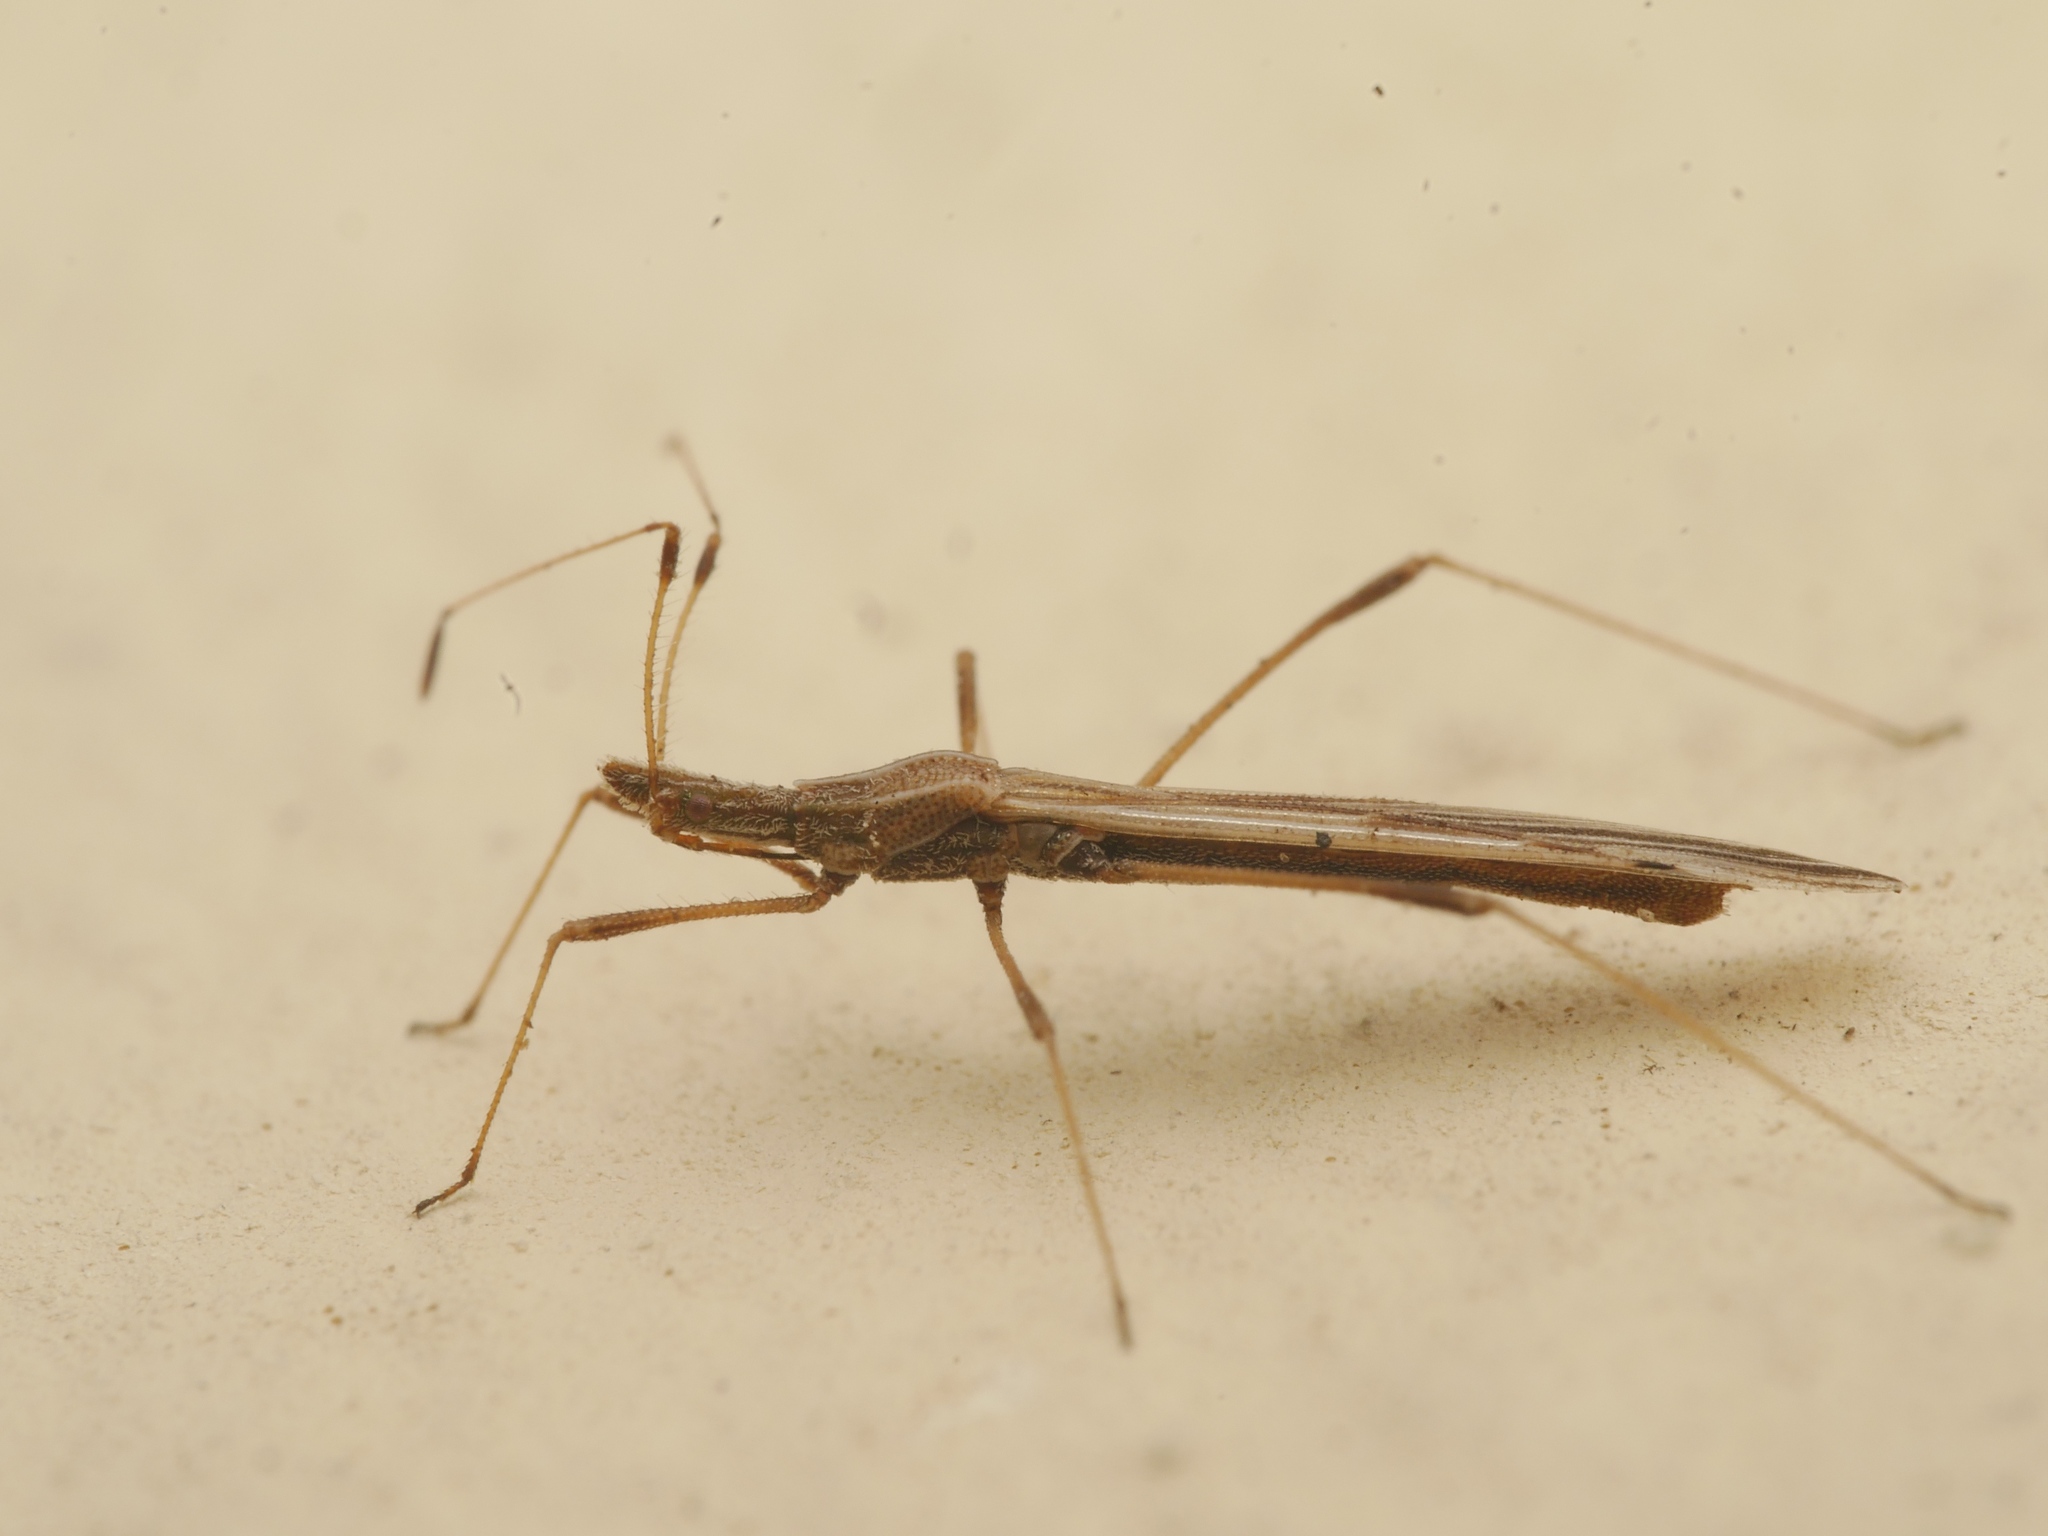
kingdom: Animalia
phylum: Arthropoda
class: Insecta
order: Hemiptera
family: Berytidae
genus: Neides
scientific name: Neides tipularius
